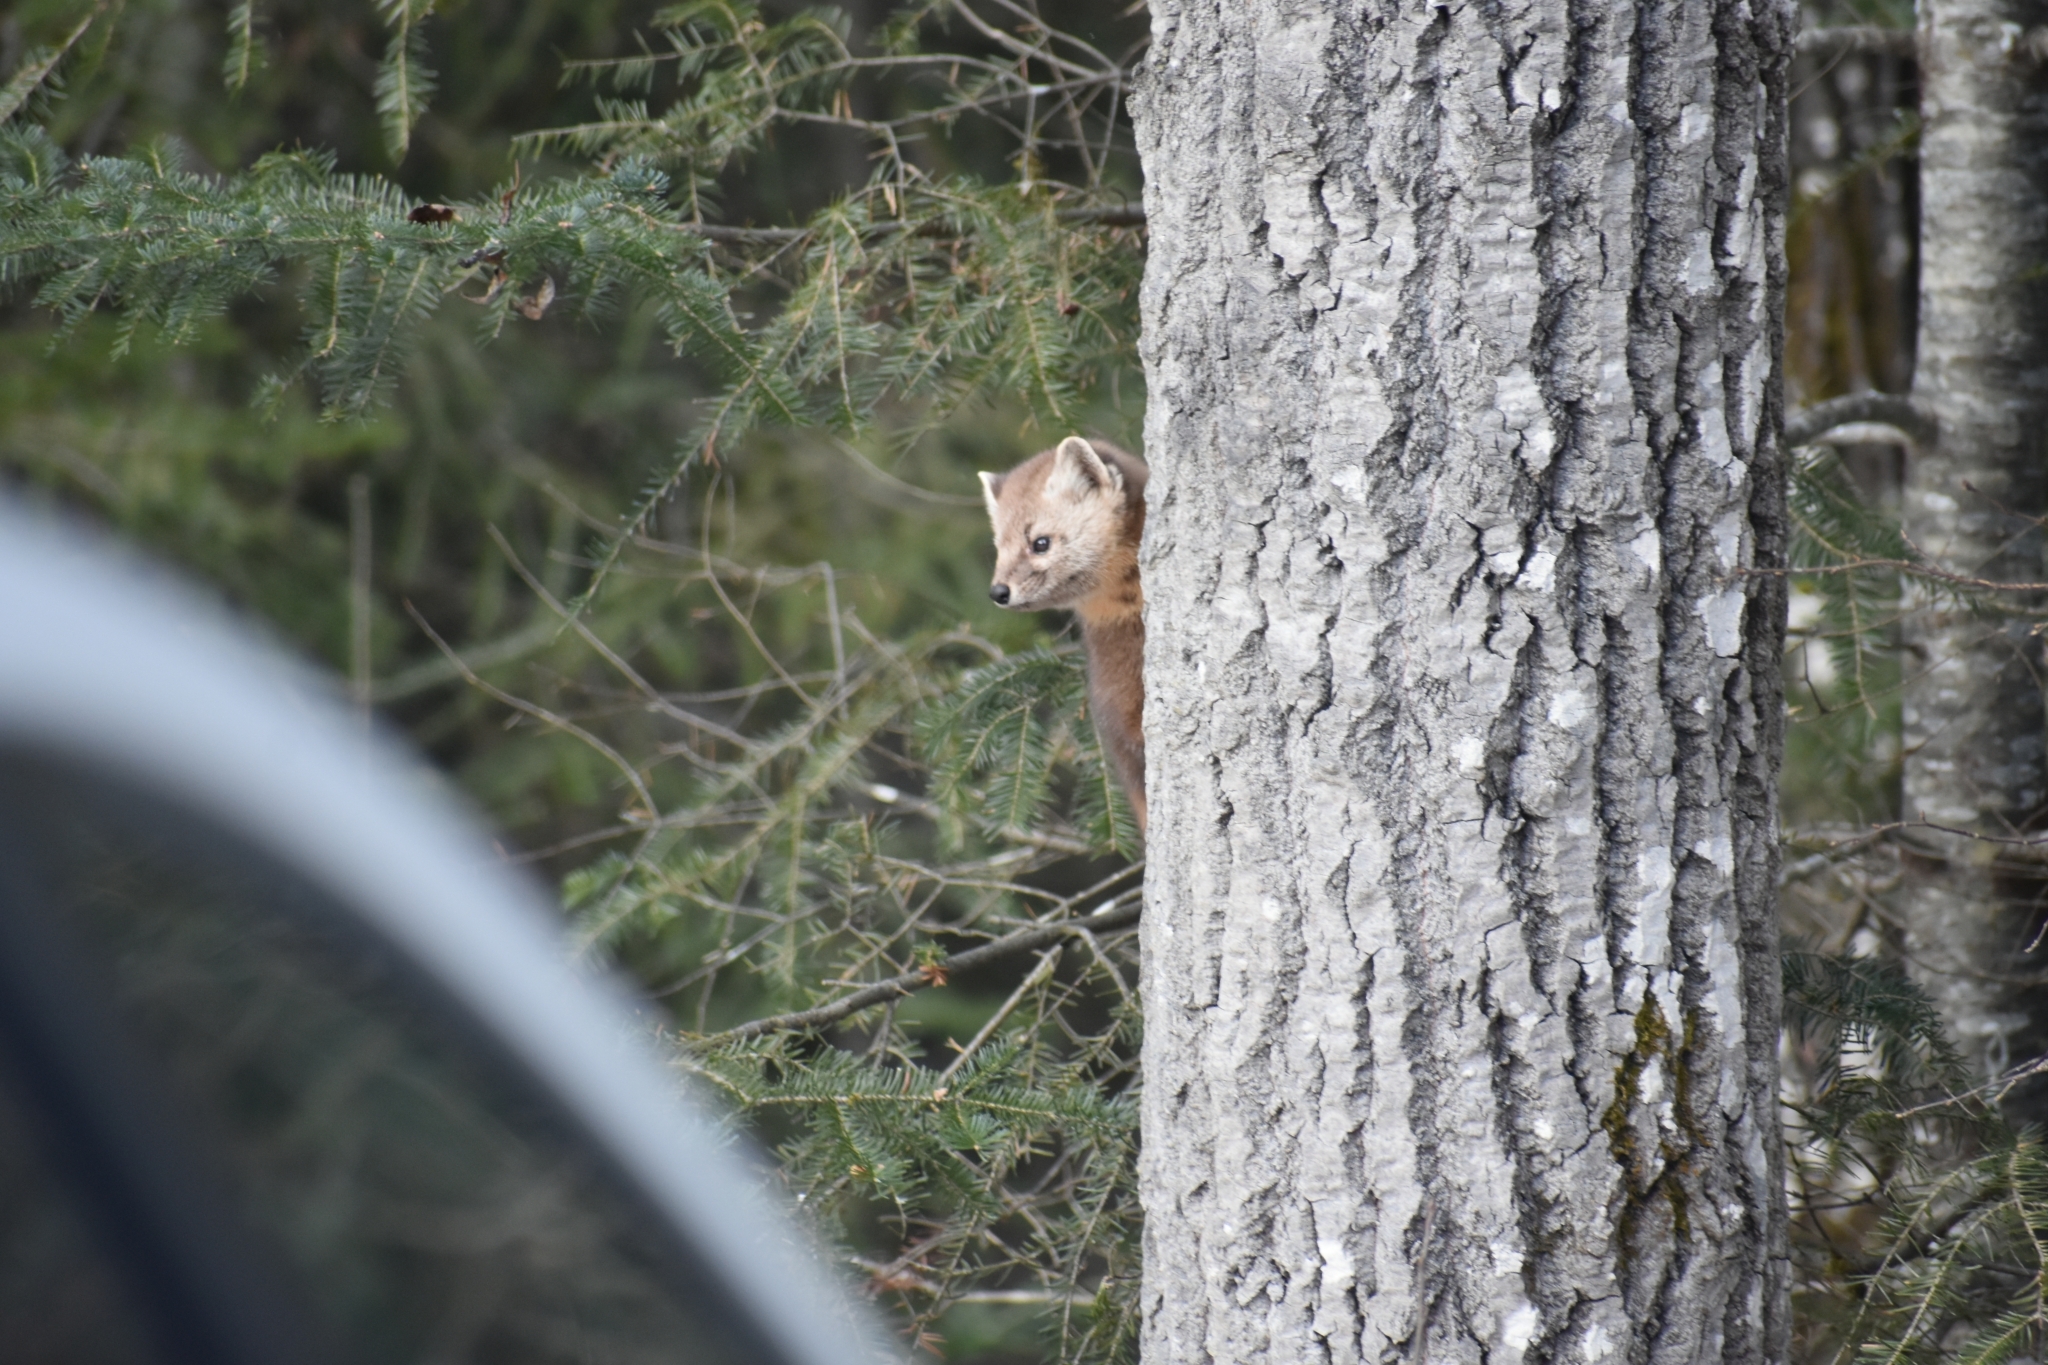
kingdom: Animalia
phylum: Chordata
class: Mammalia
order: Carnivora
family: Mustelidae
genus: Martes
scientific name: Martes americana
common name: American marten
